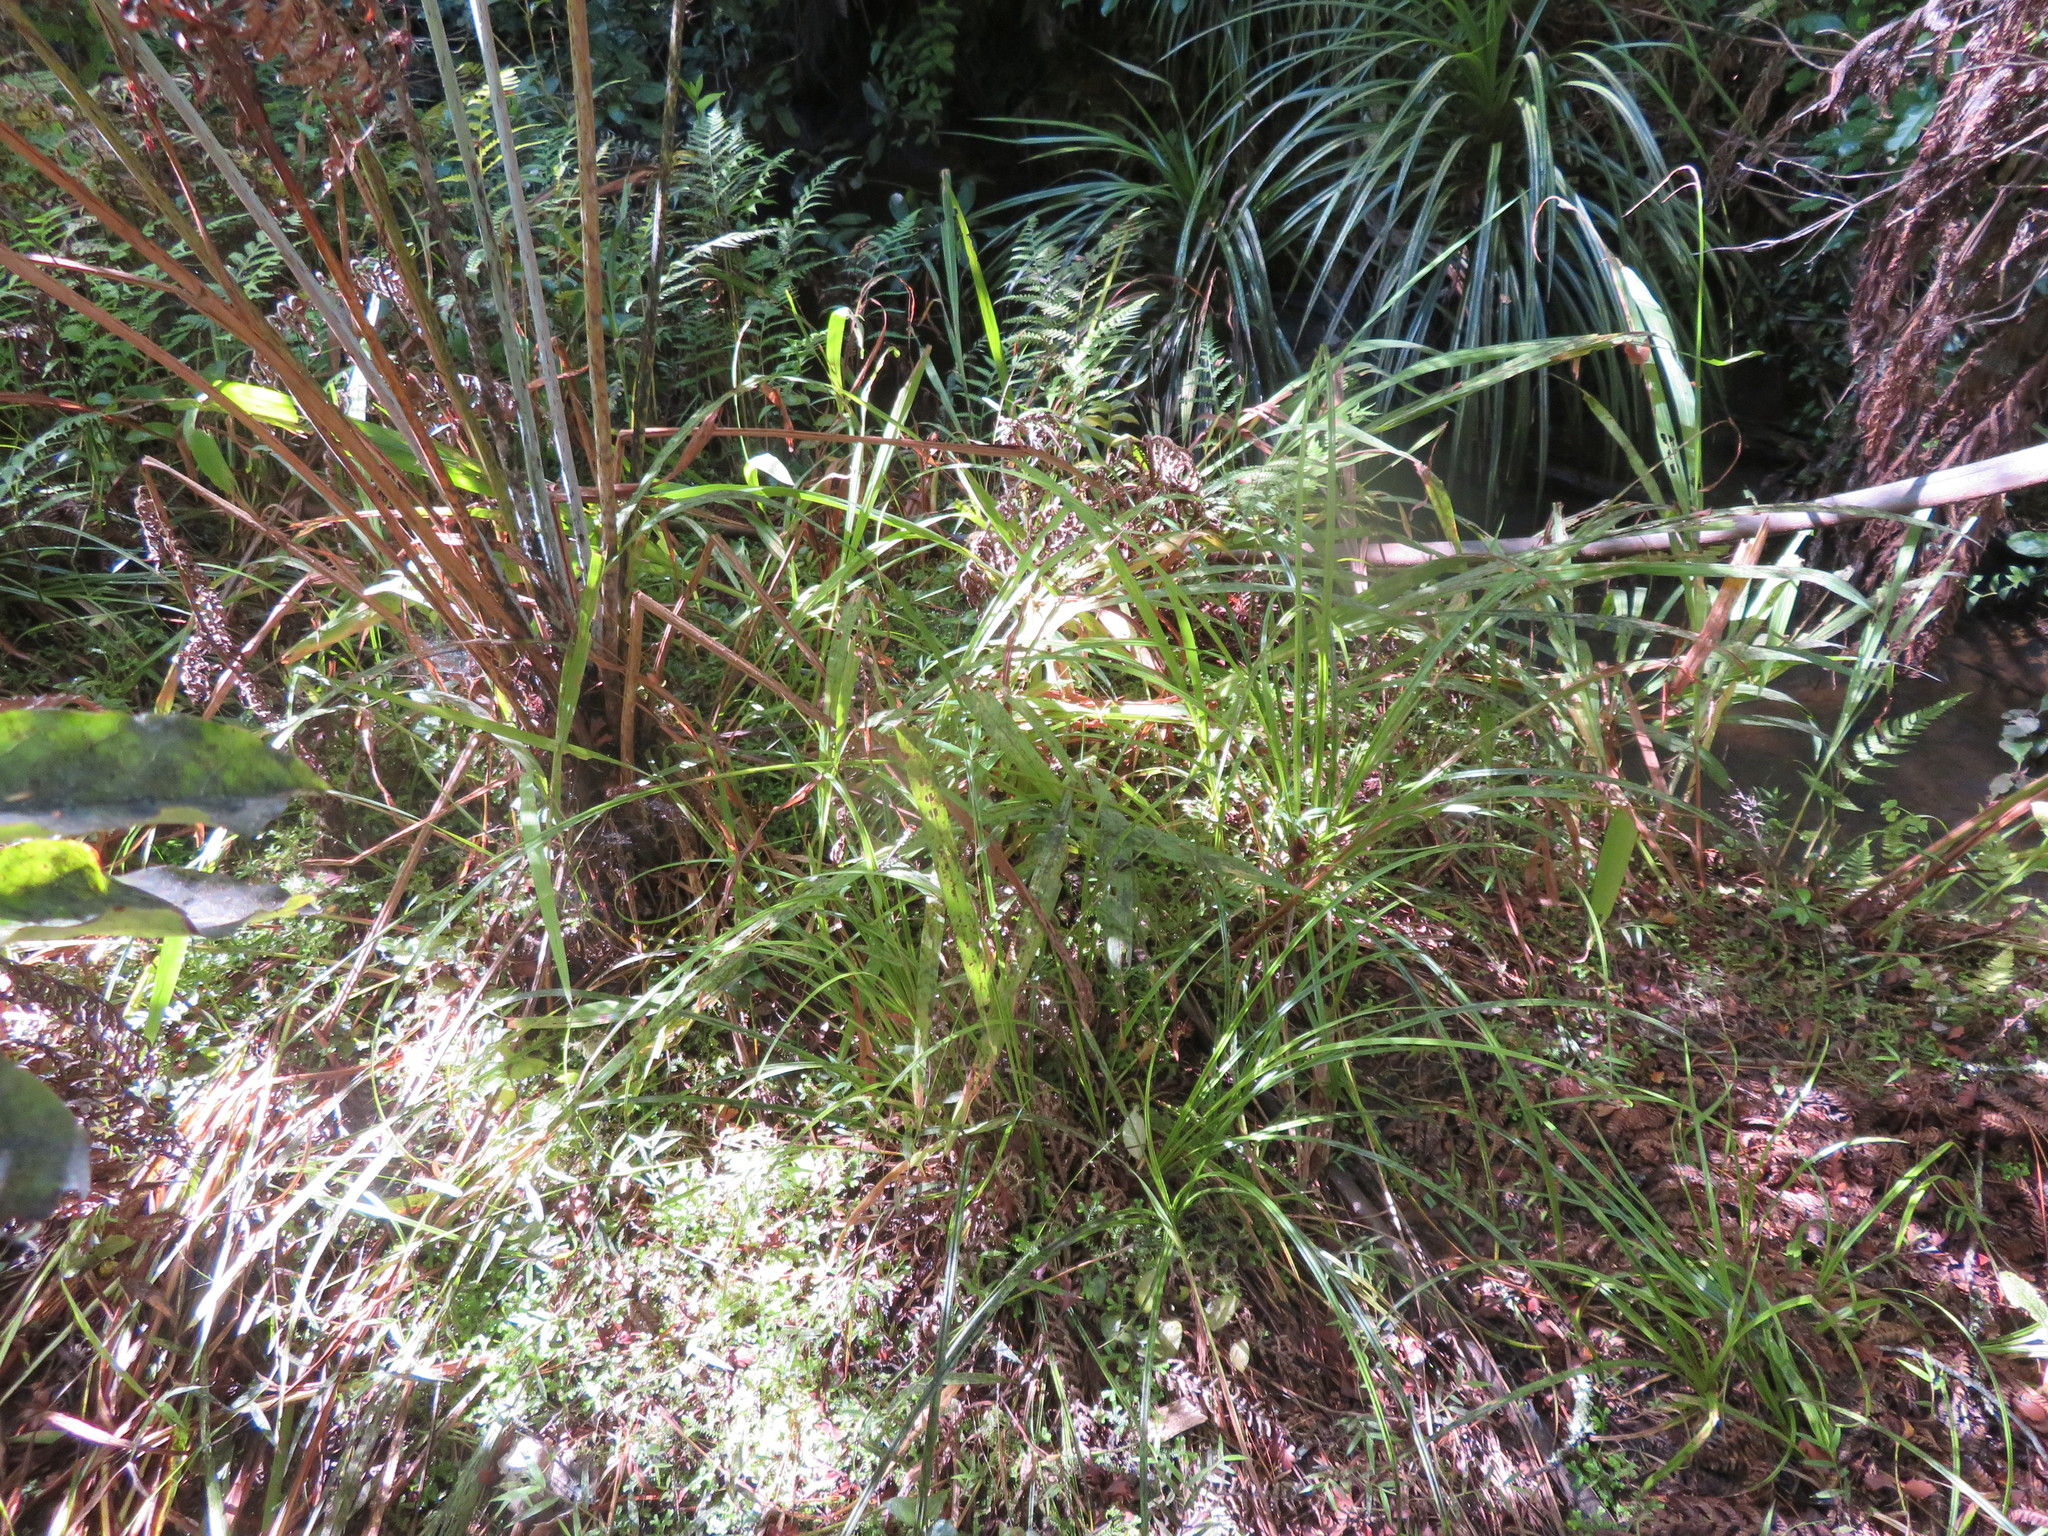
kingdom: Plantae
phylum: Tracheophyta
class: Lycopodiopsida
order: Selaginellales
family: Selaginellaceae
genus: Selaginella
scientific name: Selaginella kraussiana
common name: Krauss' spikemoss
